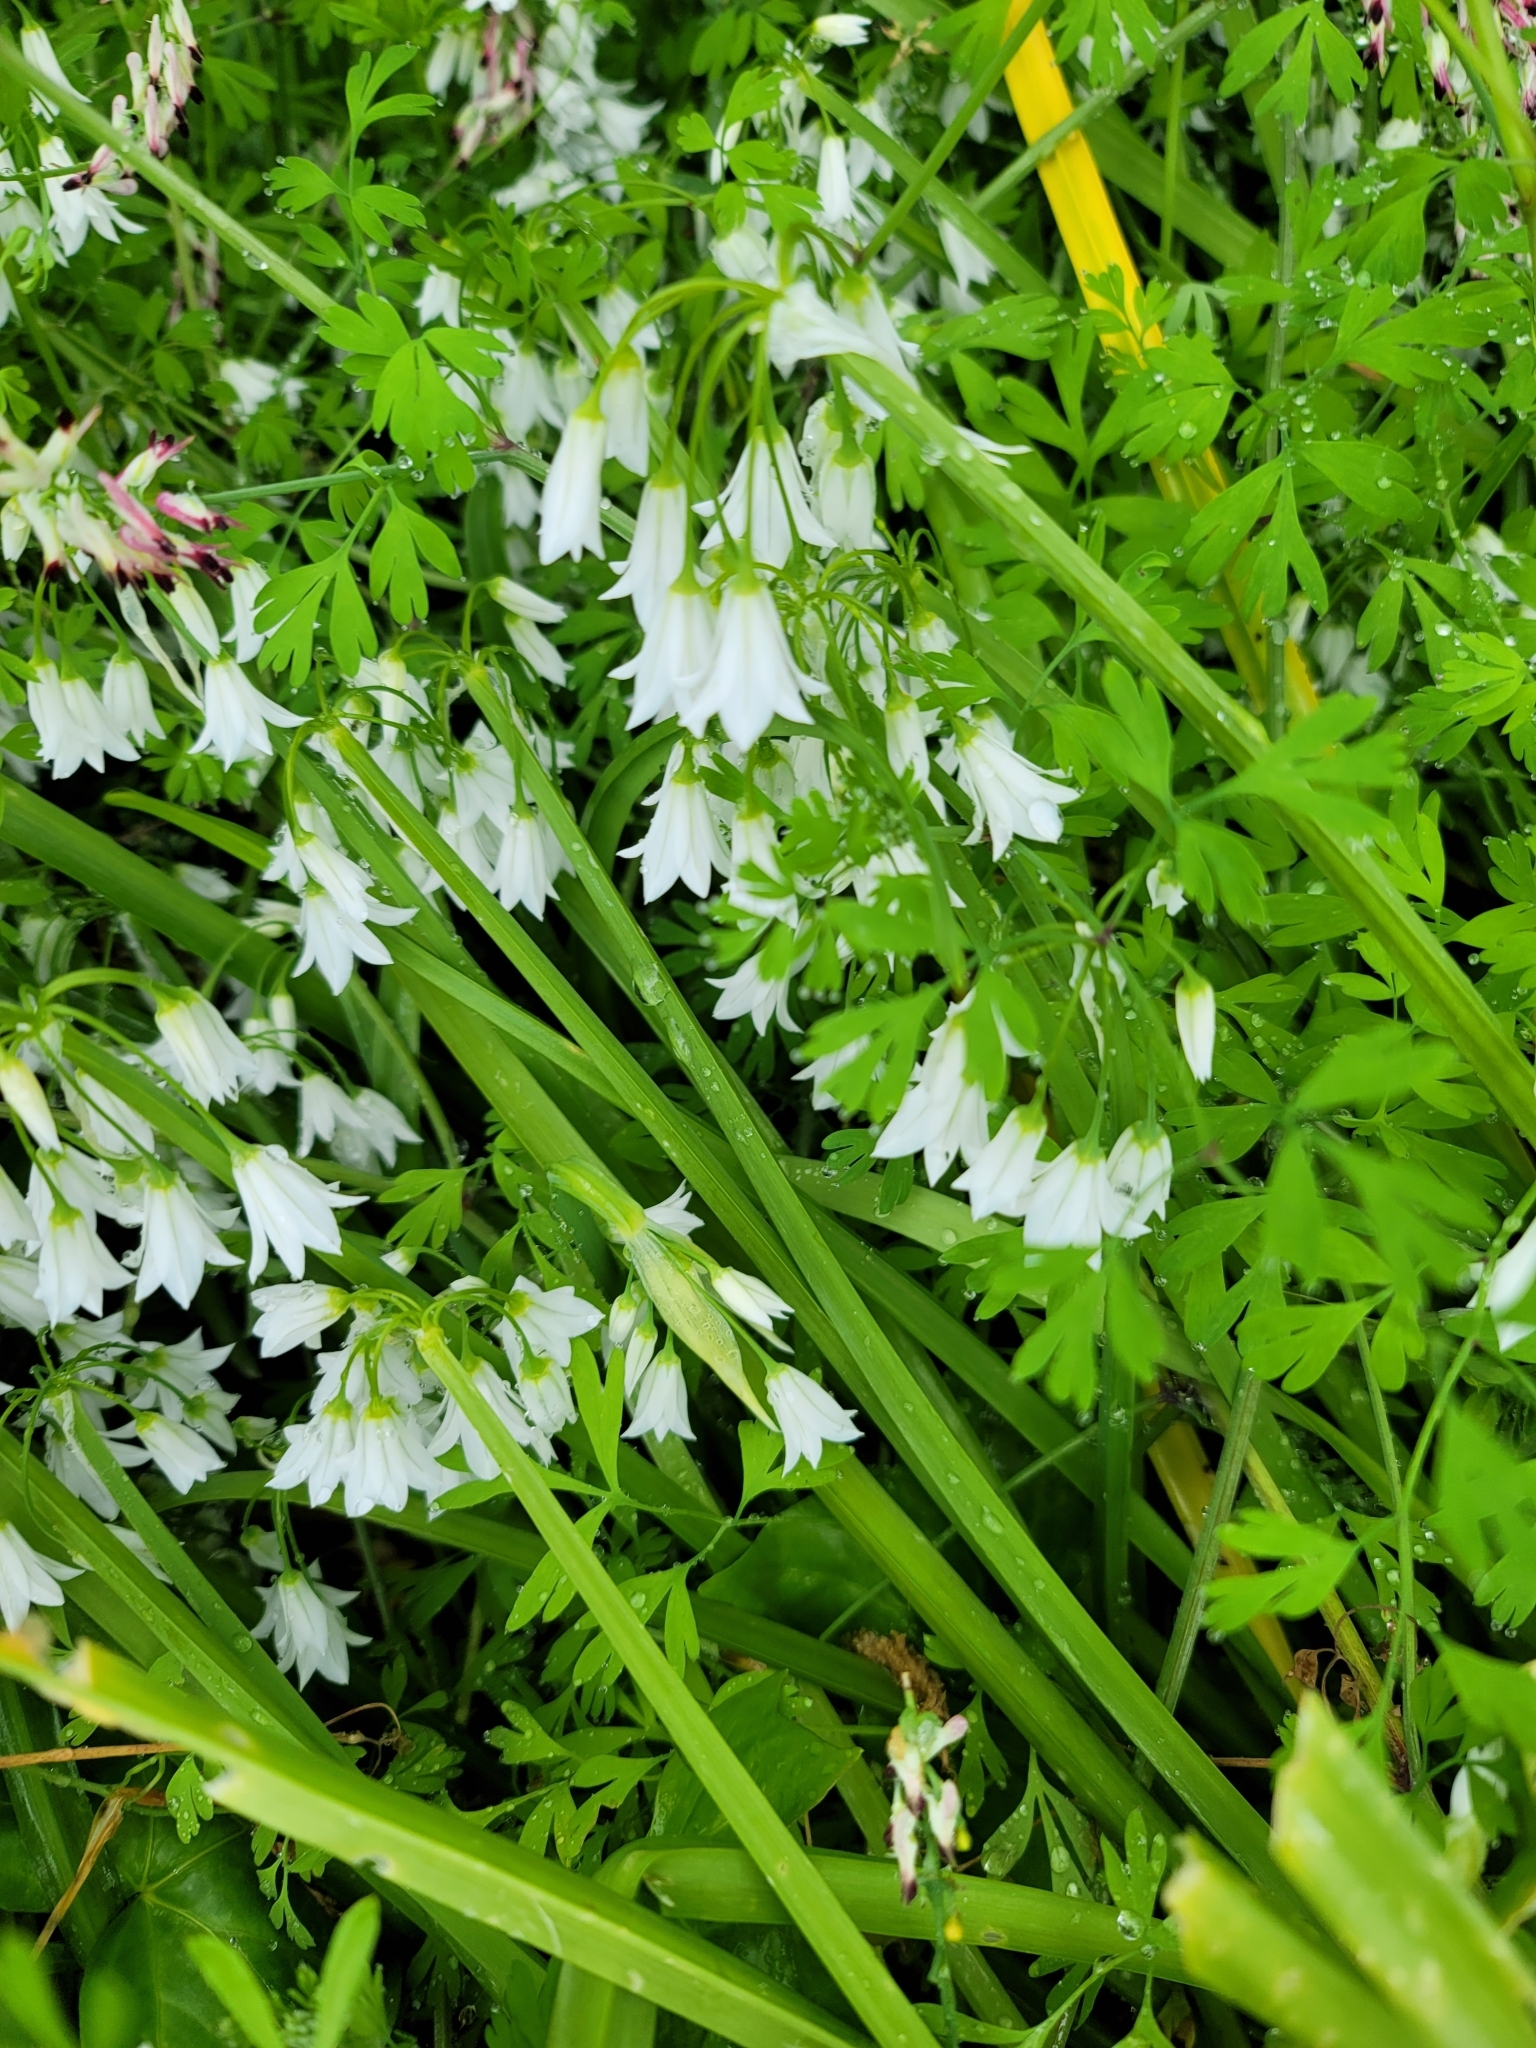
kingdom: Plantae
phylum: Tracheophyta
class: Liliopsida
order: Asparagales
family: Amaryllidaceae
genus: Allium
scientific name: Allium triquetrum
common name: Three-cornered garlic
